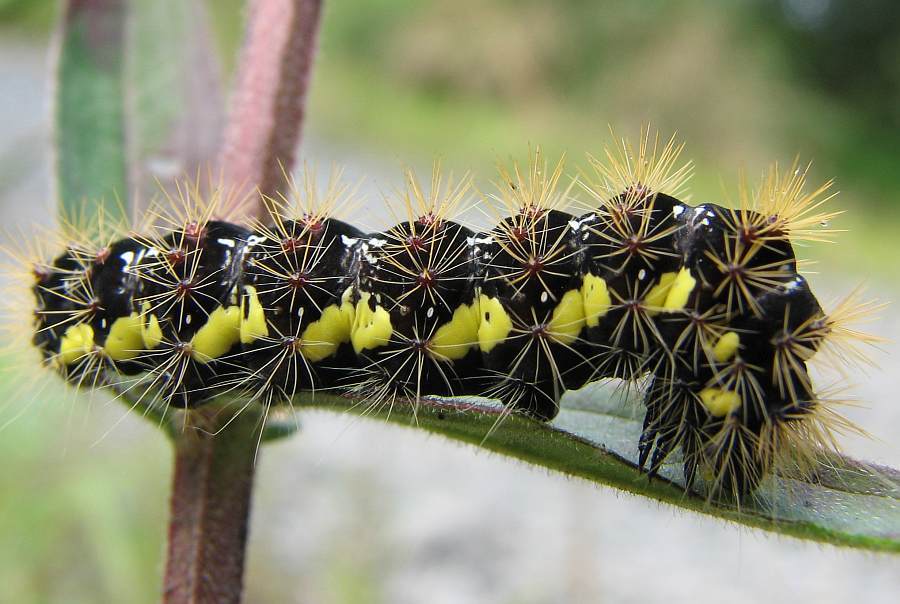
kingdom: Animalia
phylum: Arthropoda
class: Insecta
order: Lepidoptera
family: Noctuidae
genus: Acronicta
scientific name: Acronicta oblinita
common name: Smeared dagger
